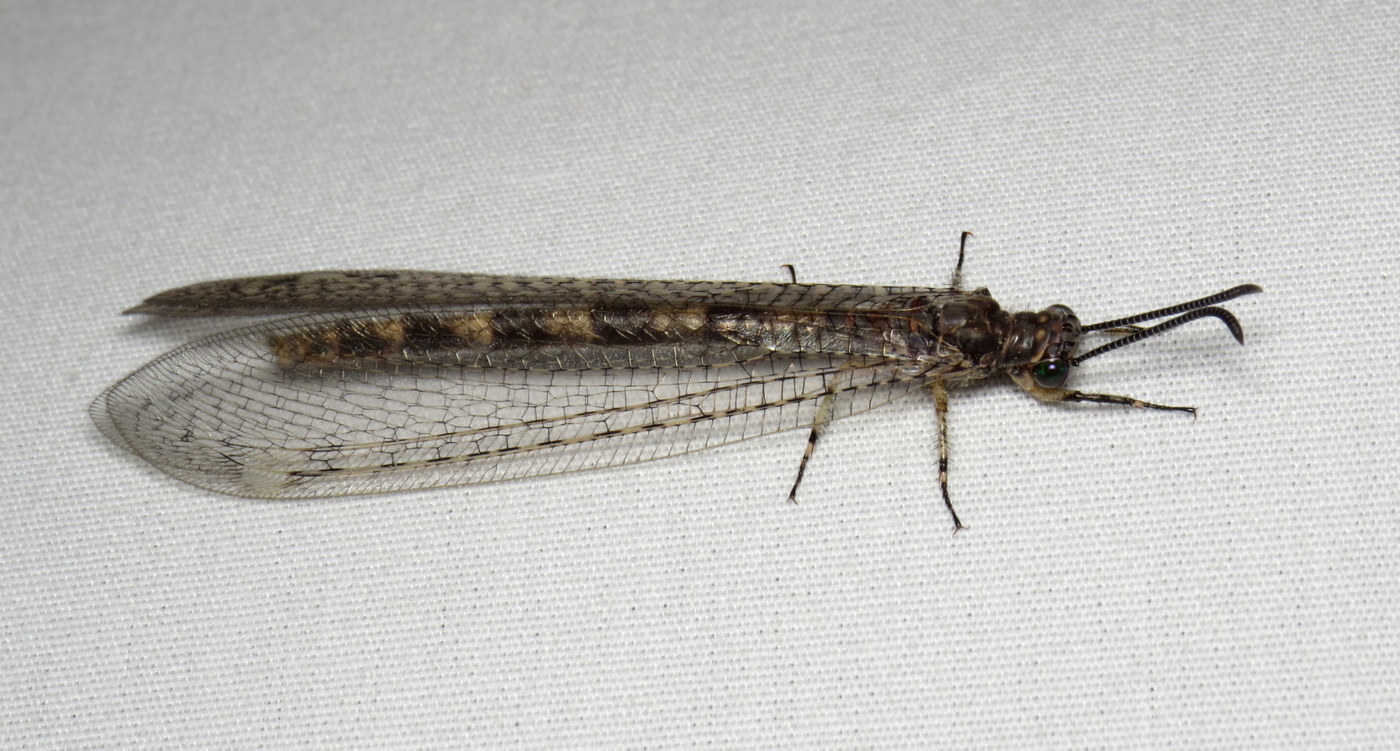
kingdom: Animalia
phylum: Arthropoda
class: Insecta
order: Neuroptera
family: Myrmeleontidae
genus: Myrmeleon
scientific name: Myrmeleon immaculatus
